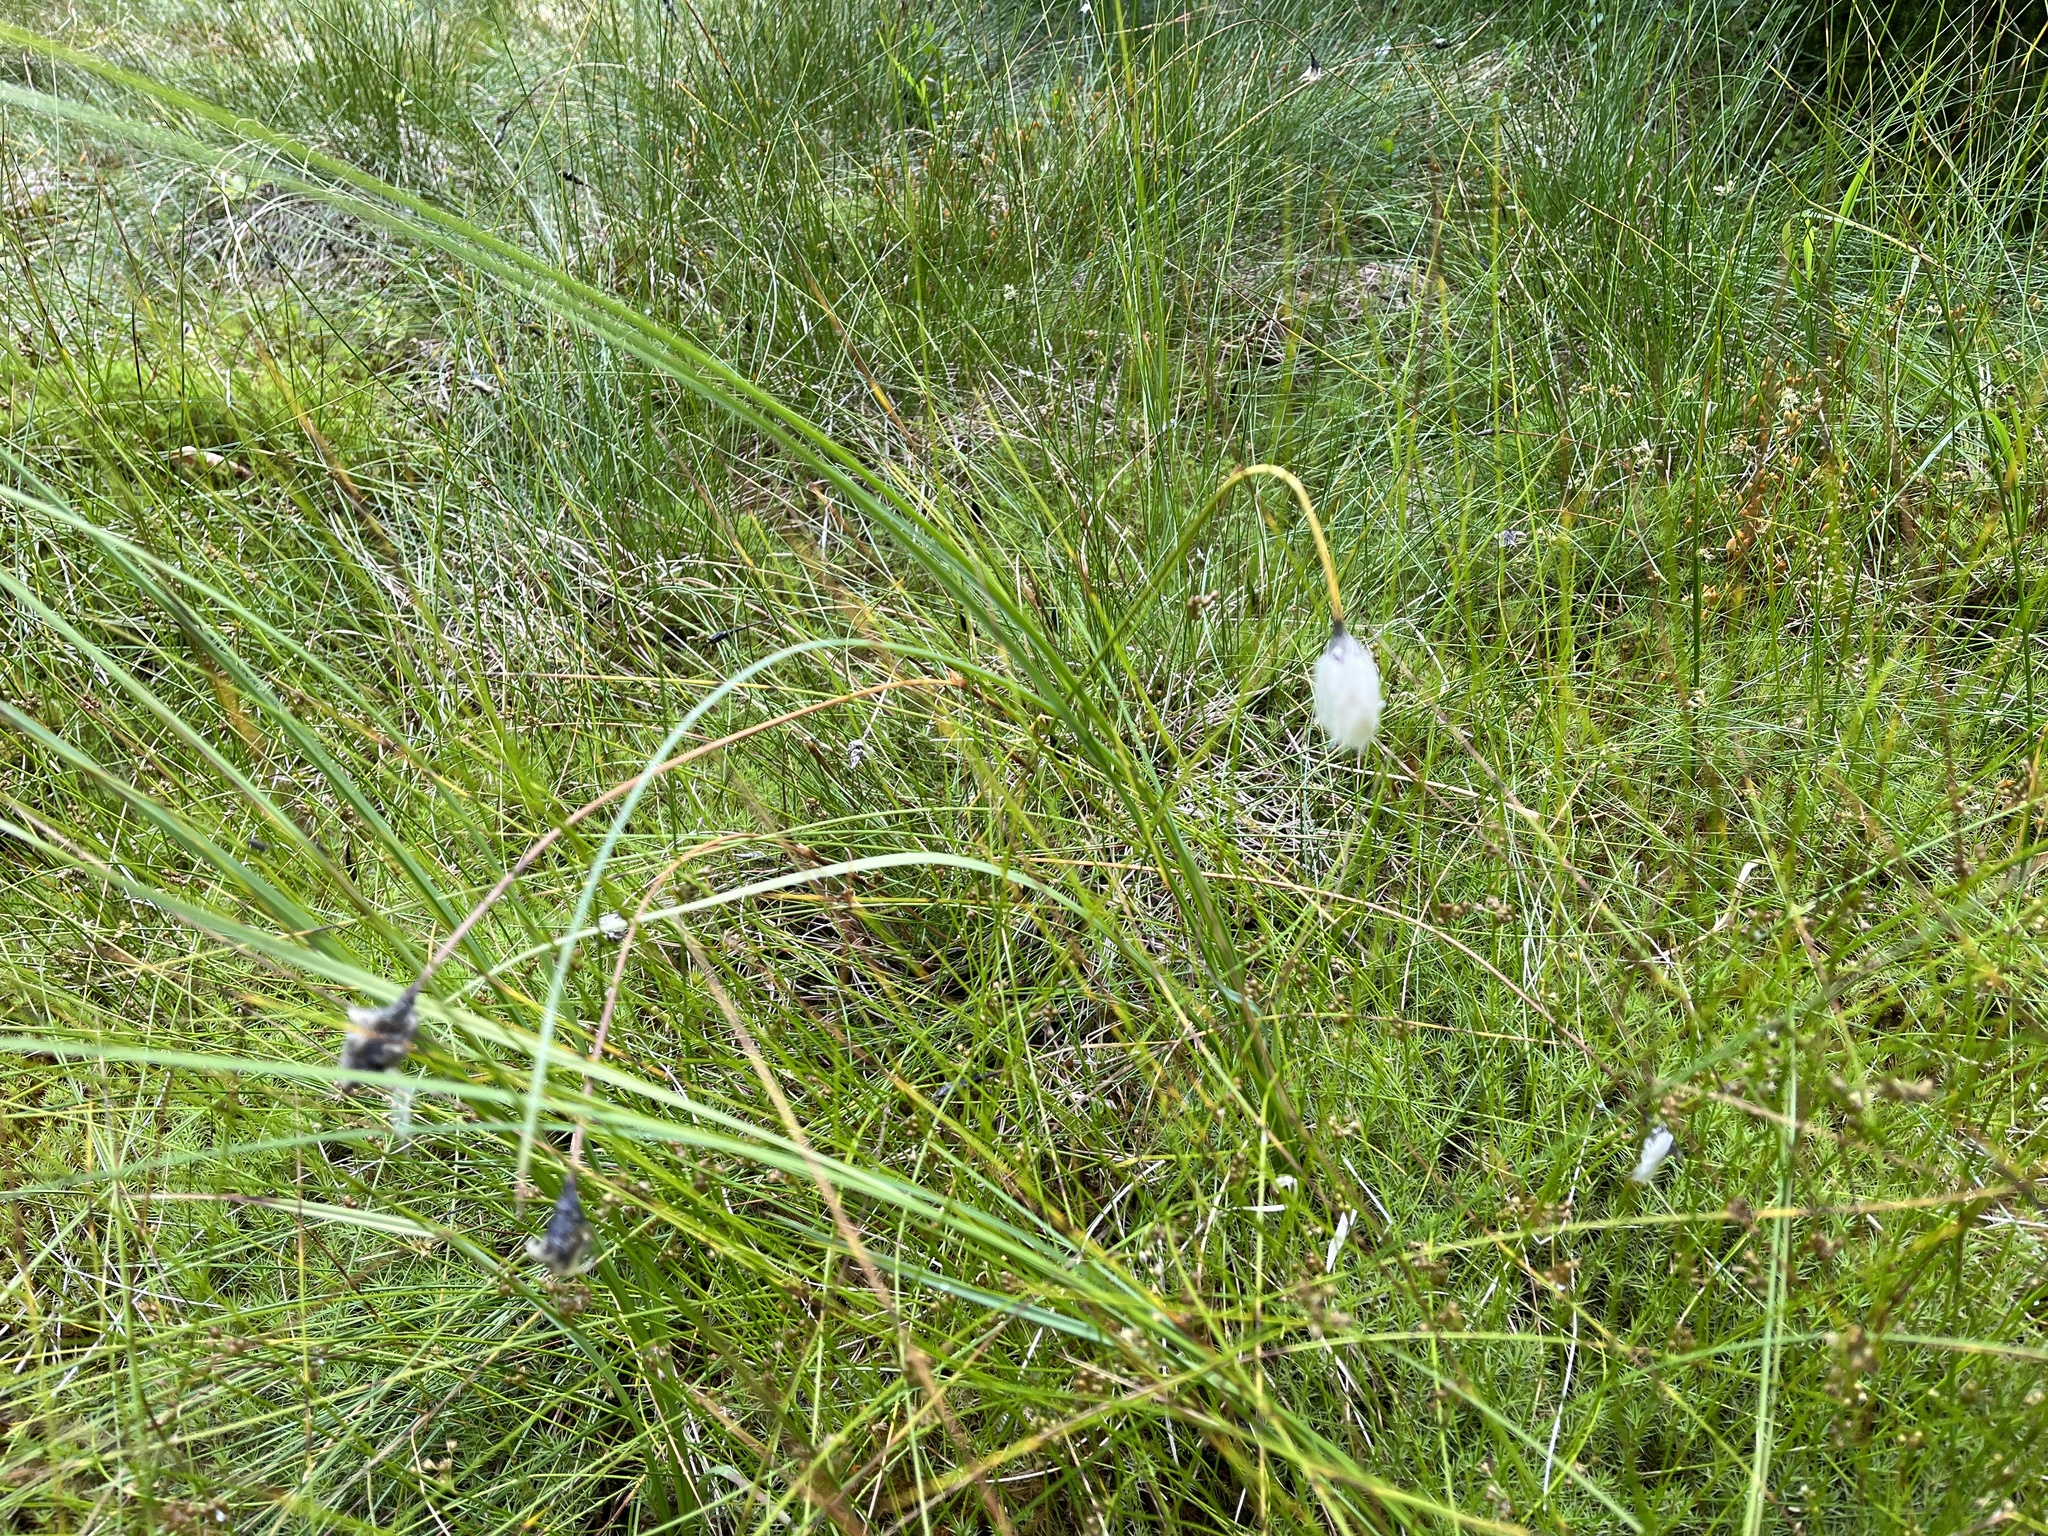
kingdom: Plantae
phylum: Tracheophyta
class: Liliopsida
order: Poales
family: Cyperaceae
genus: Eriophorum
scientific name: Eriophorum vaginatum
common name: Hare's-tail cottongrass
